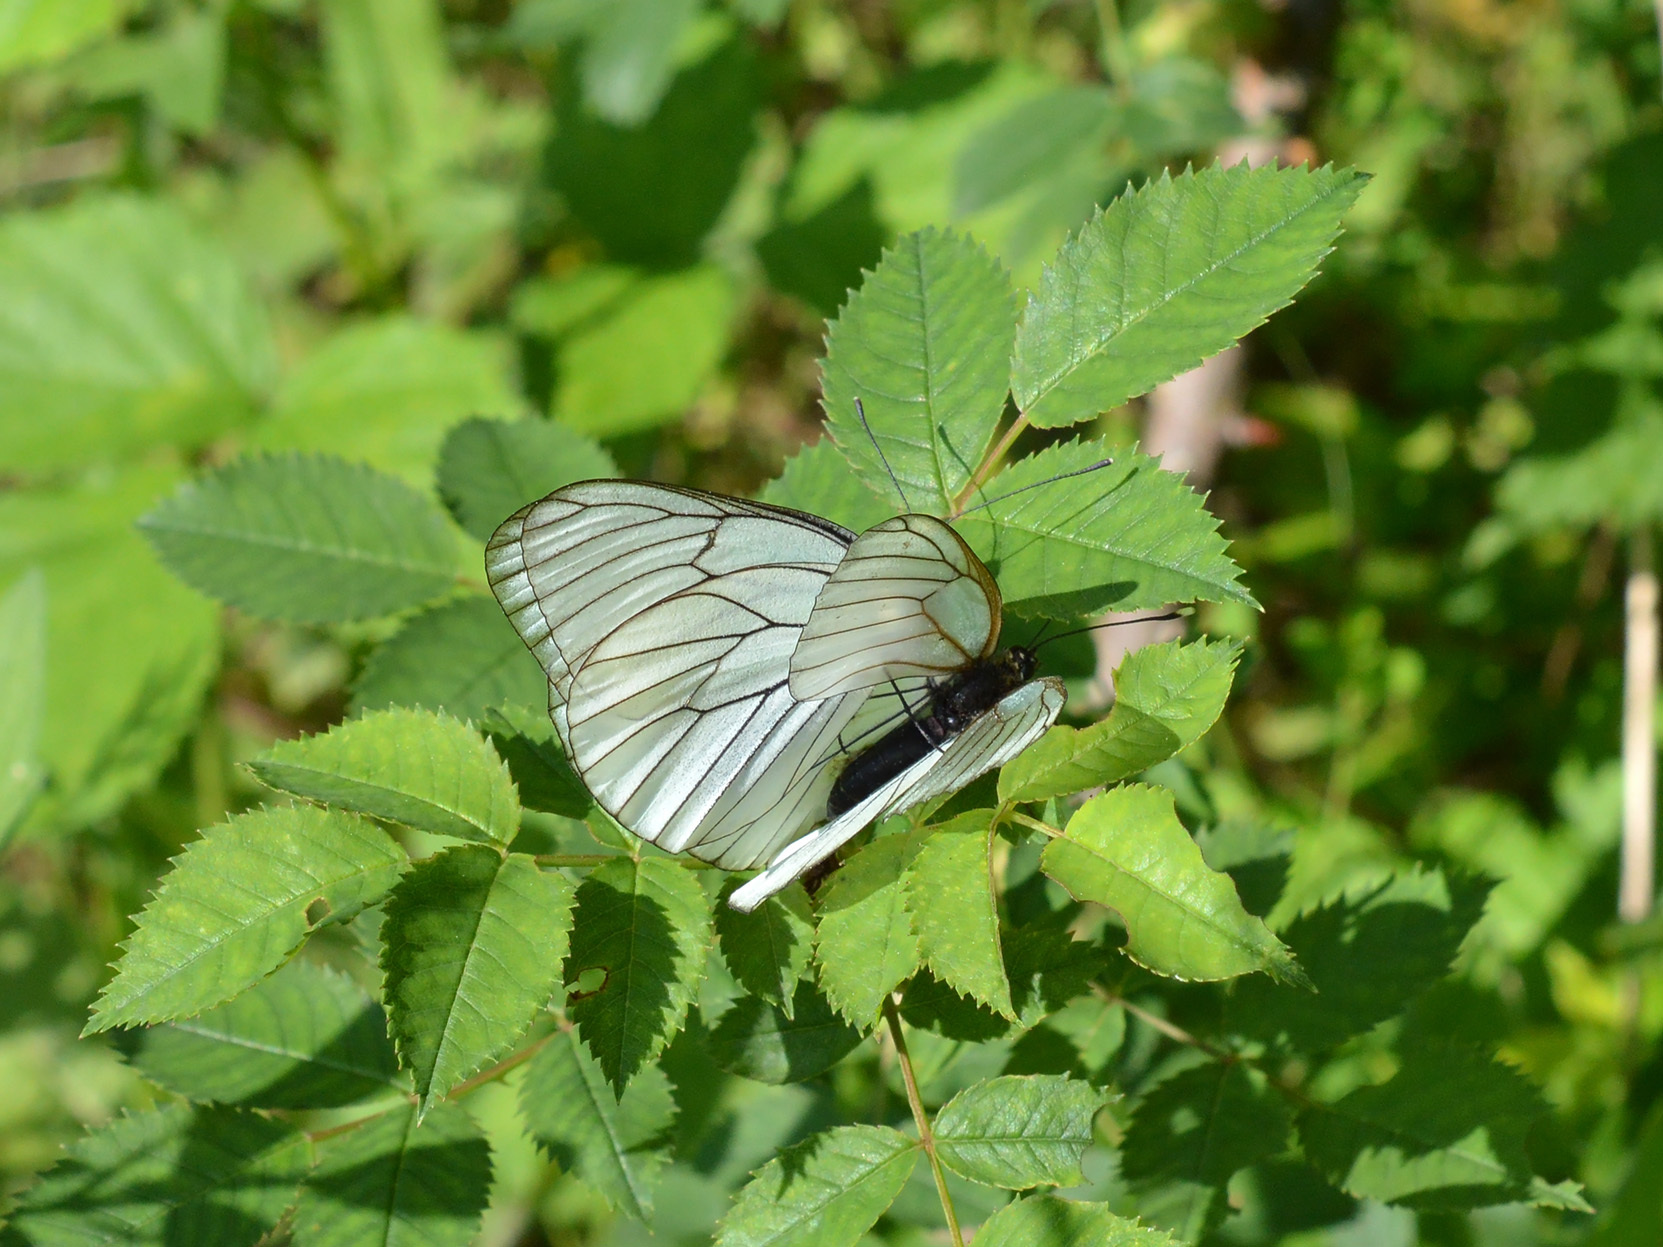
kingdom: Animalia
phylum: Arthropoda
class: Insecta
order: Lepidoptera
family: Pieridae
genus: Aporia
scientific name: Aporia crataegi
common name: Black-veined white
